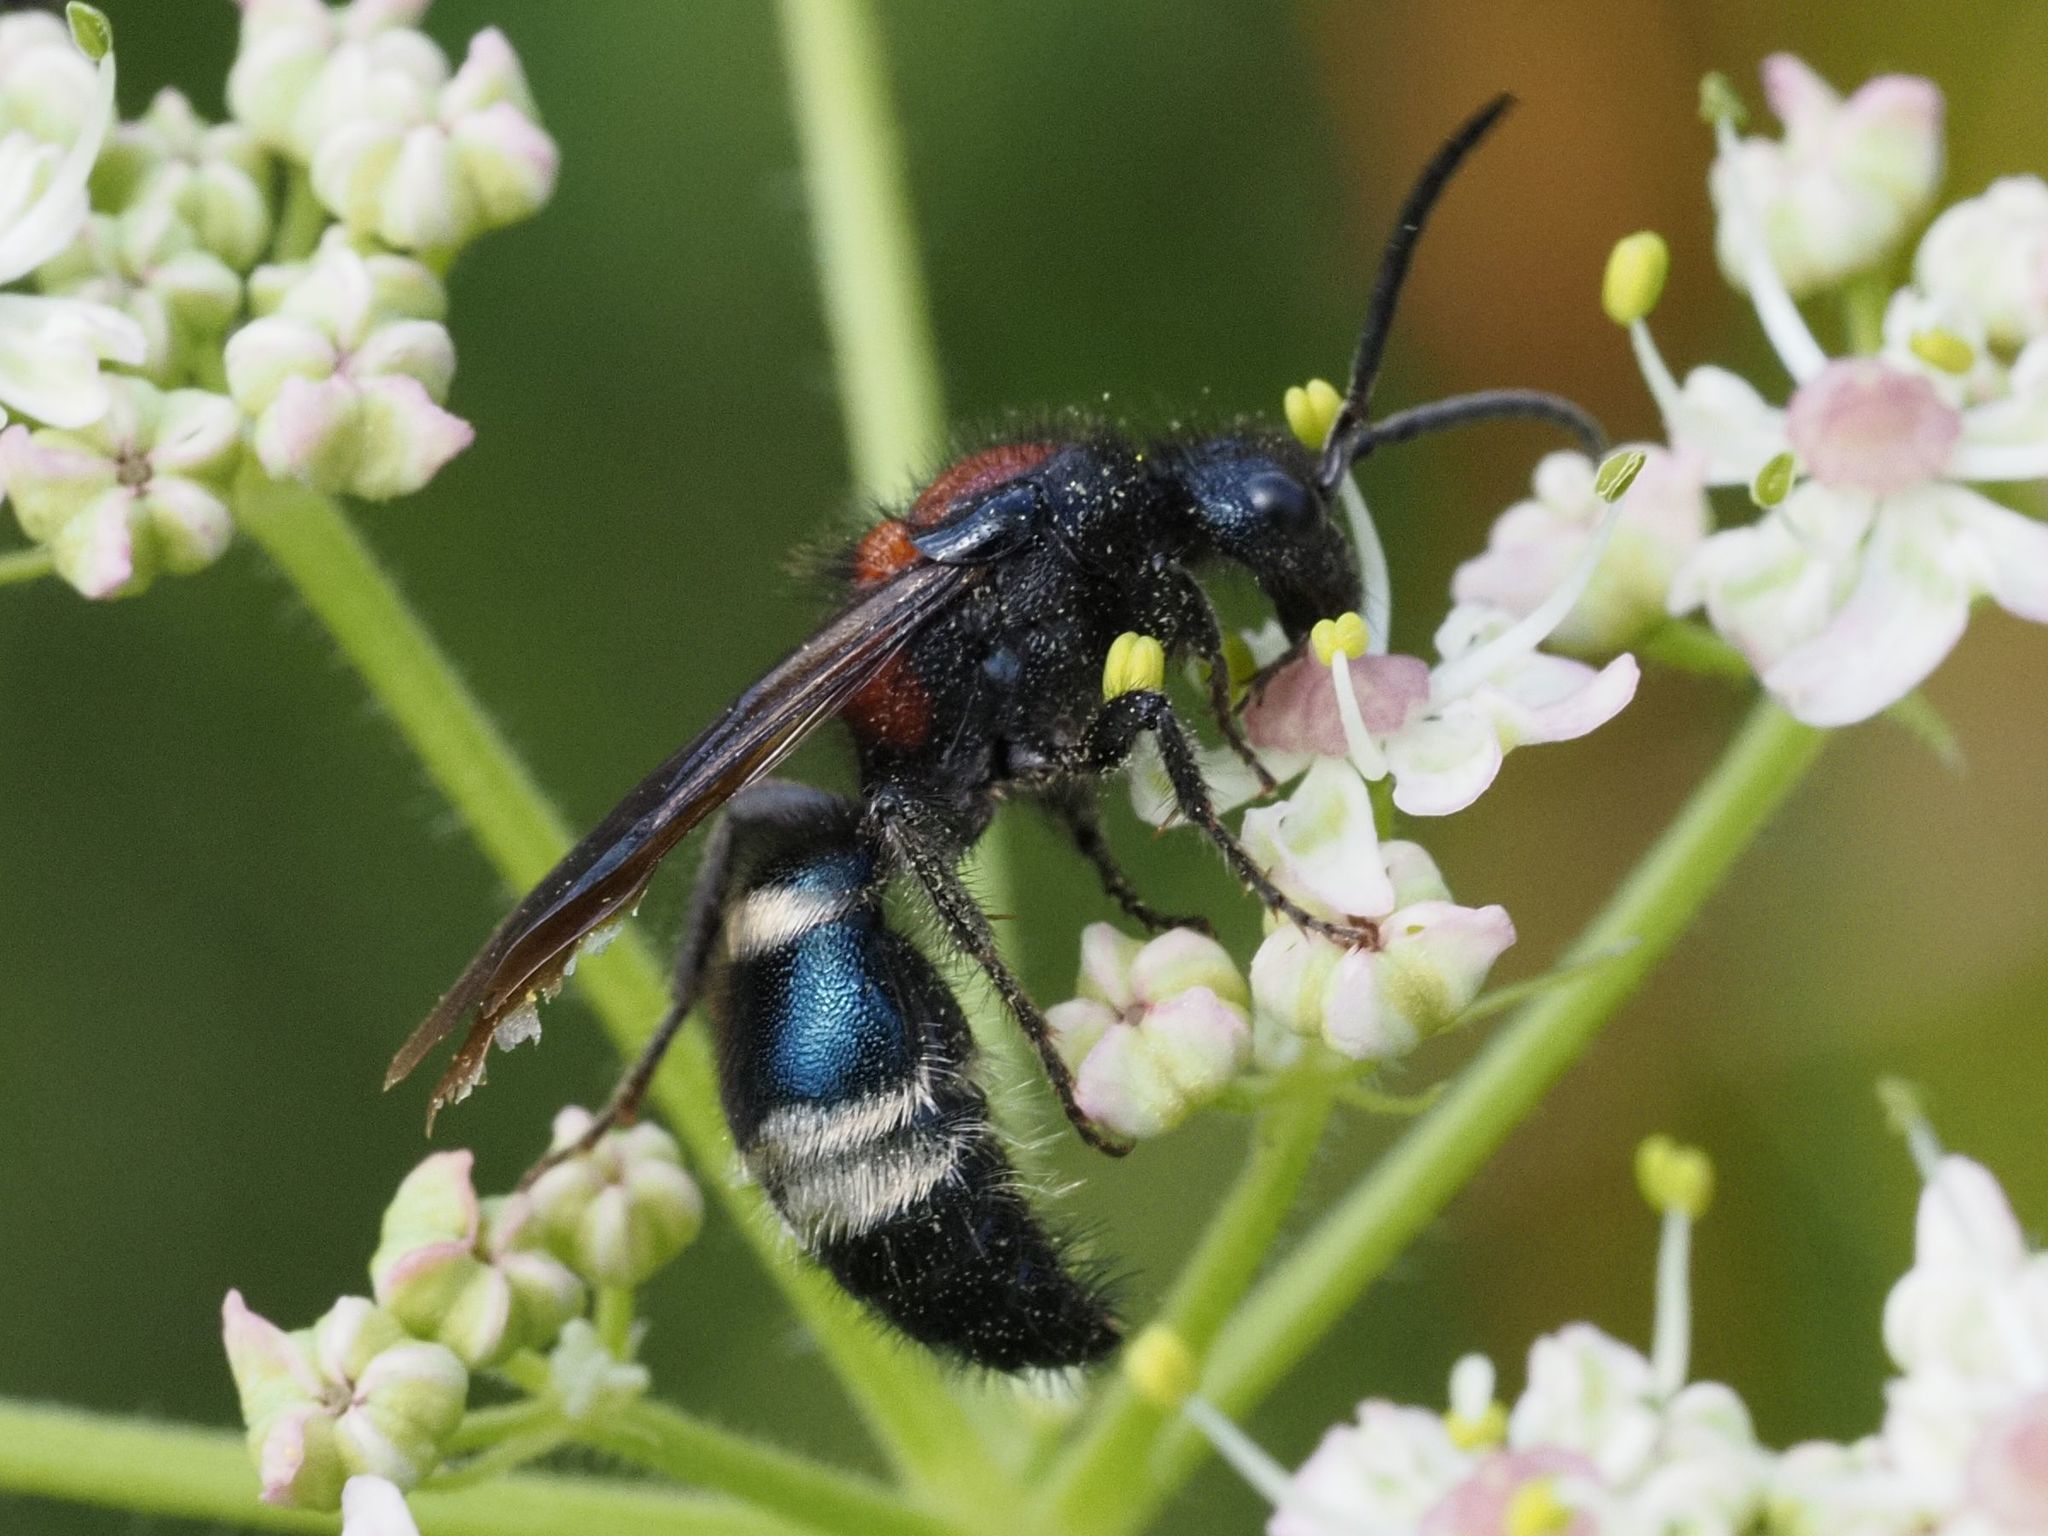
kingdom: Animalia
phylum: Arthropoda
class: Insecta
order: Hymenoptera
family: Mutillidae
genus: Mutilla
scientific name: Mutilla europaea
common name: Large velvet ant
